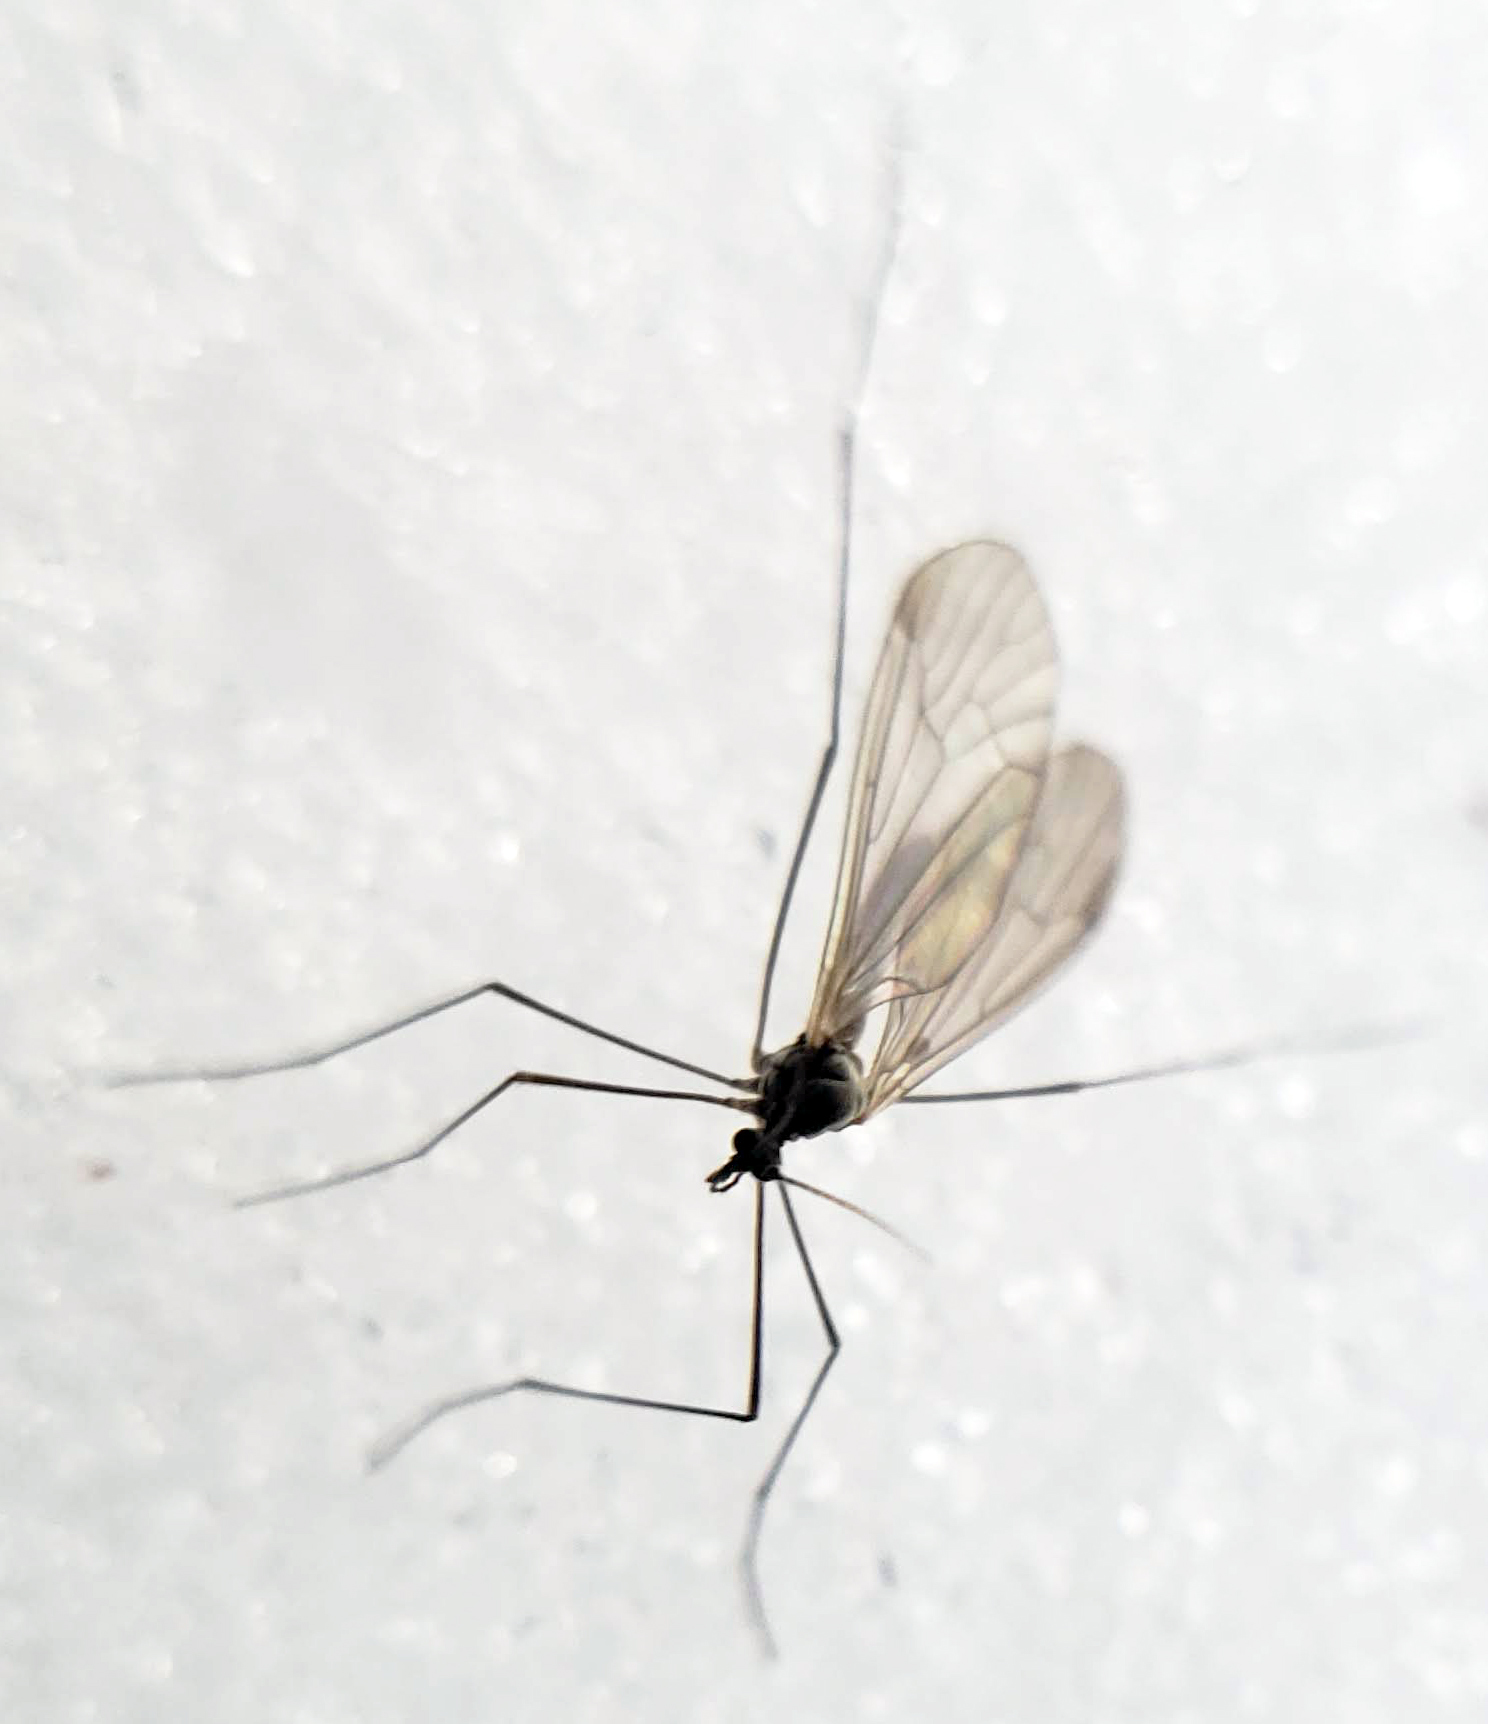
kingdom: Animalia
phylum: Arthropoda
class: Insecta
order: Diptera
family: Trichoceridae
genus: Trichocera
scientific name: Trichocera
